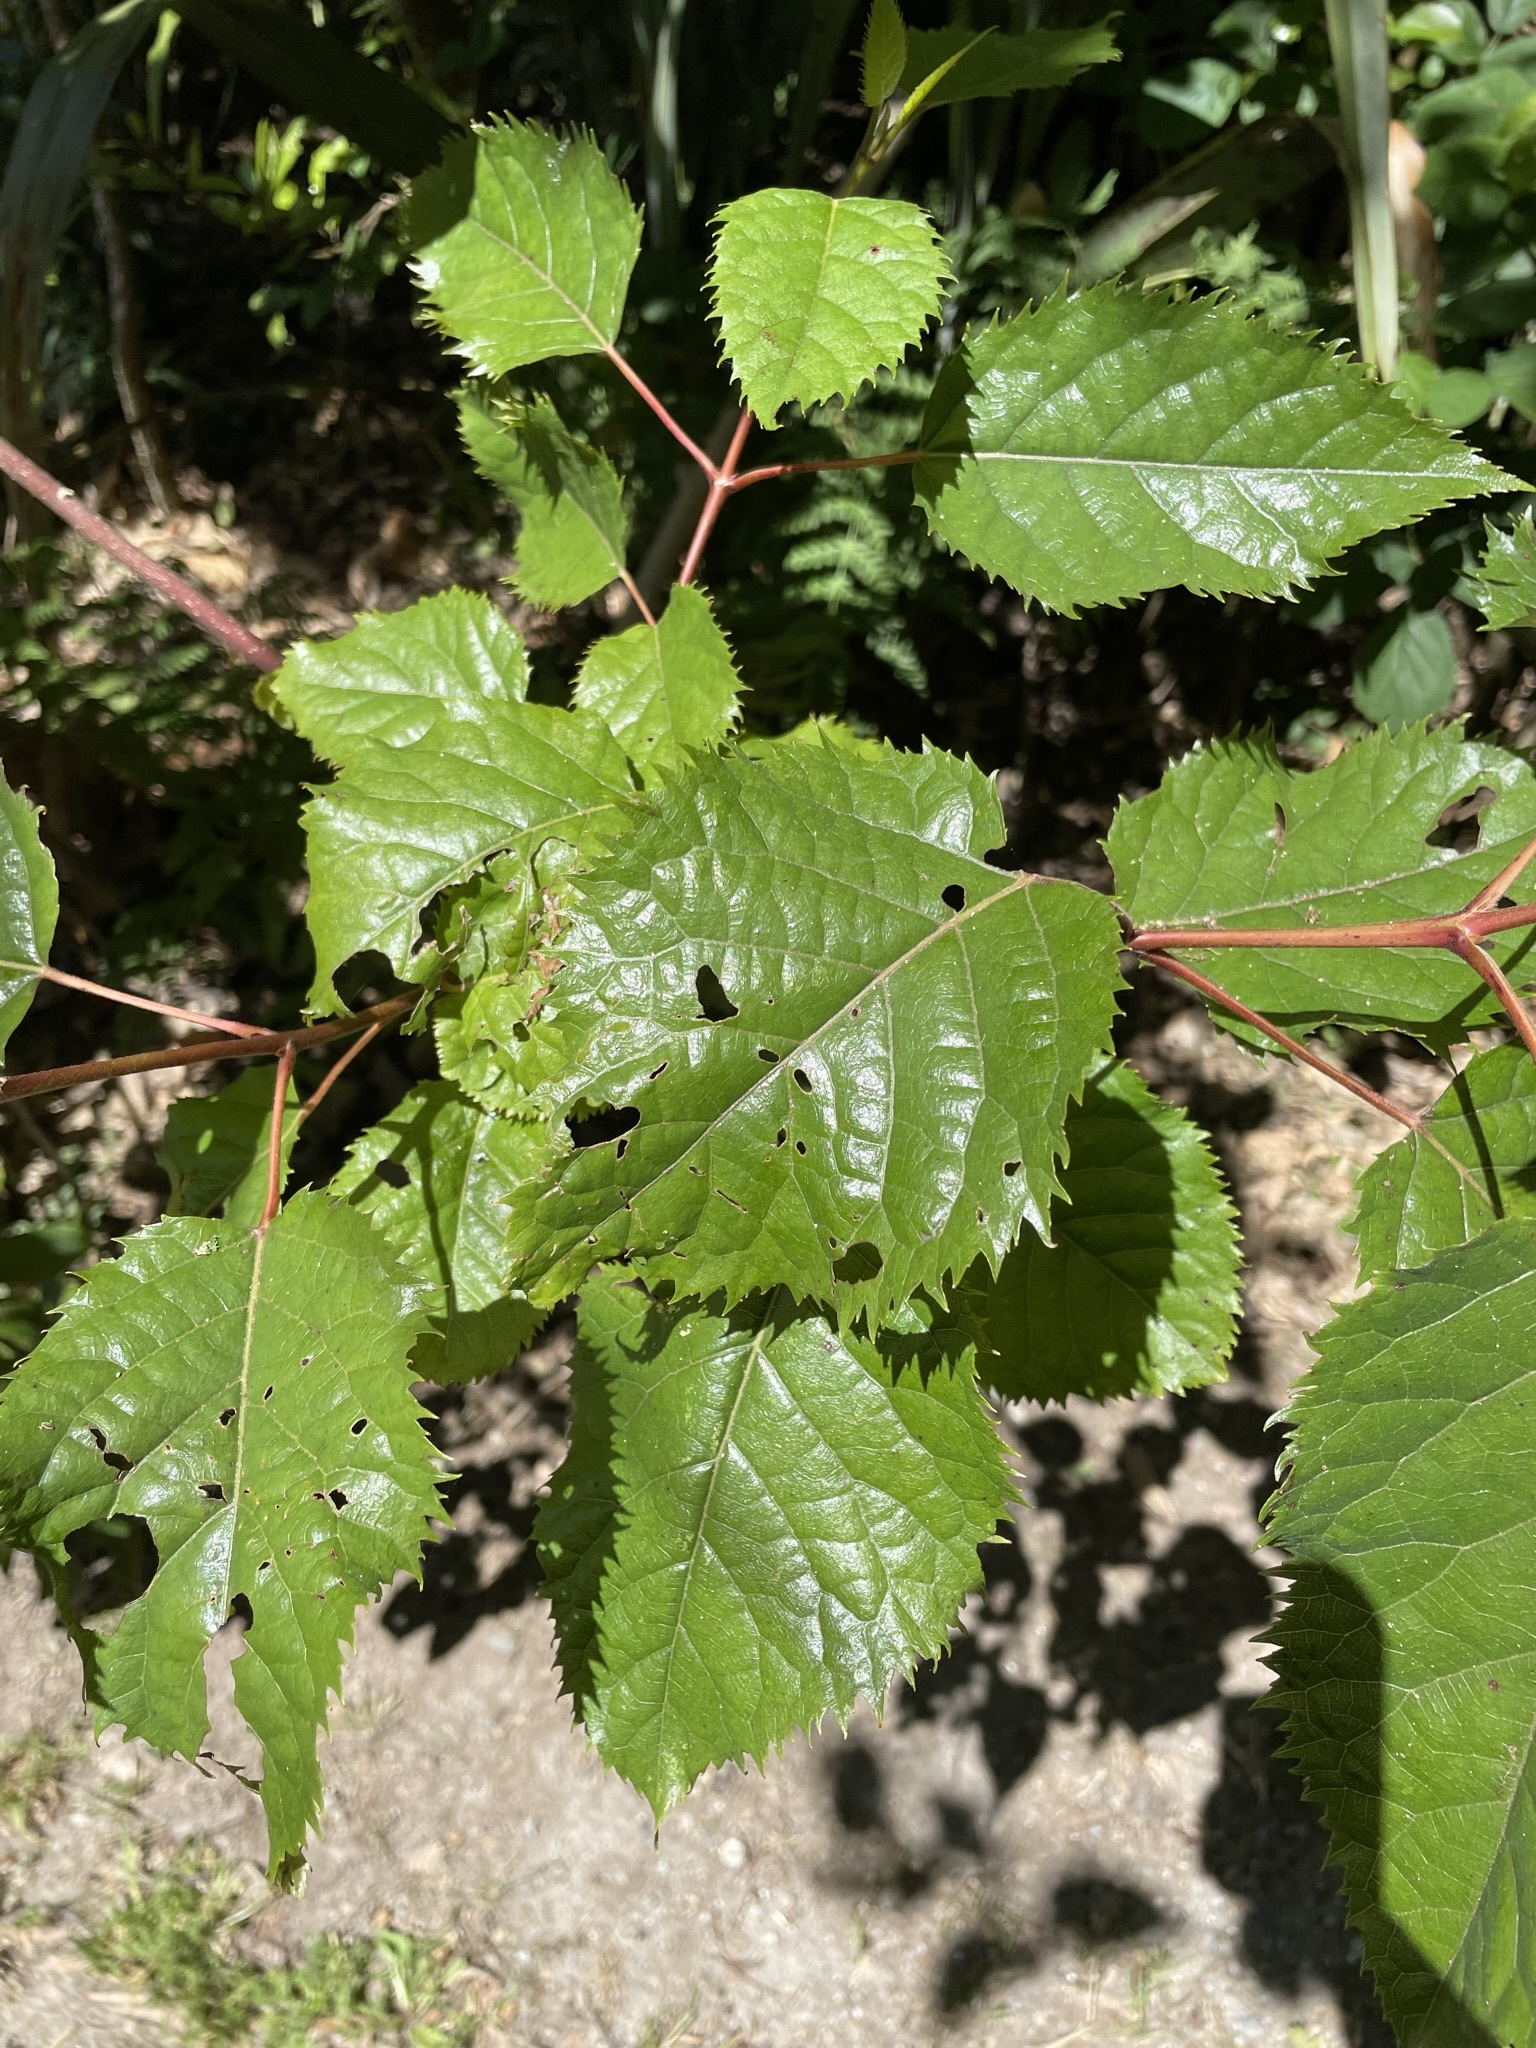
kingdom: Plantae
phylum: Tracheophyta
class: Magnoliopsida
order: Oxalidales
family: Elaeocarpaceae
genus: Aristotelia
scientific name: Aristotelia serrata
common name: New zealand wineberry
